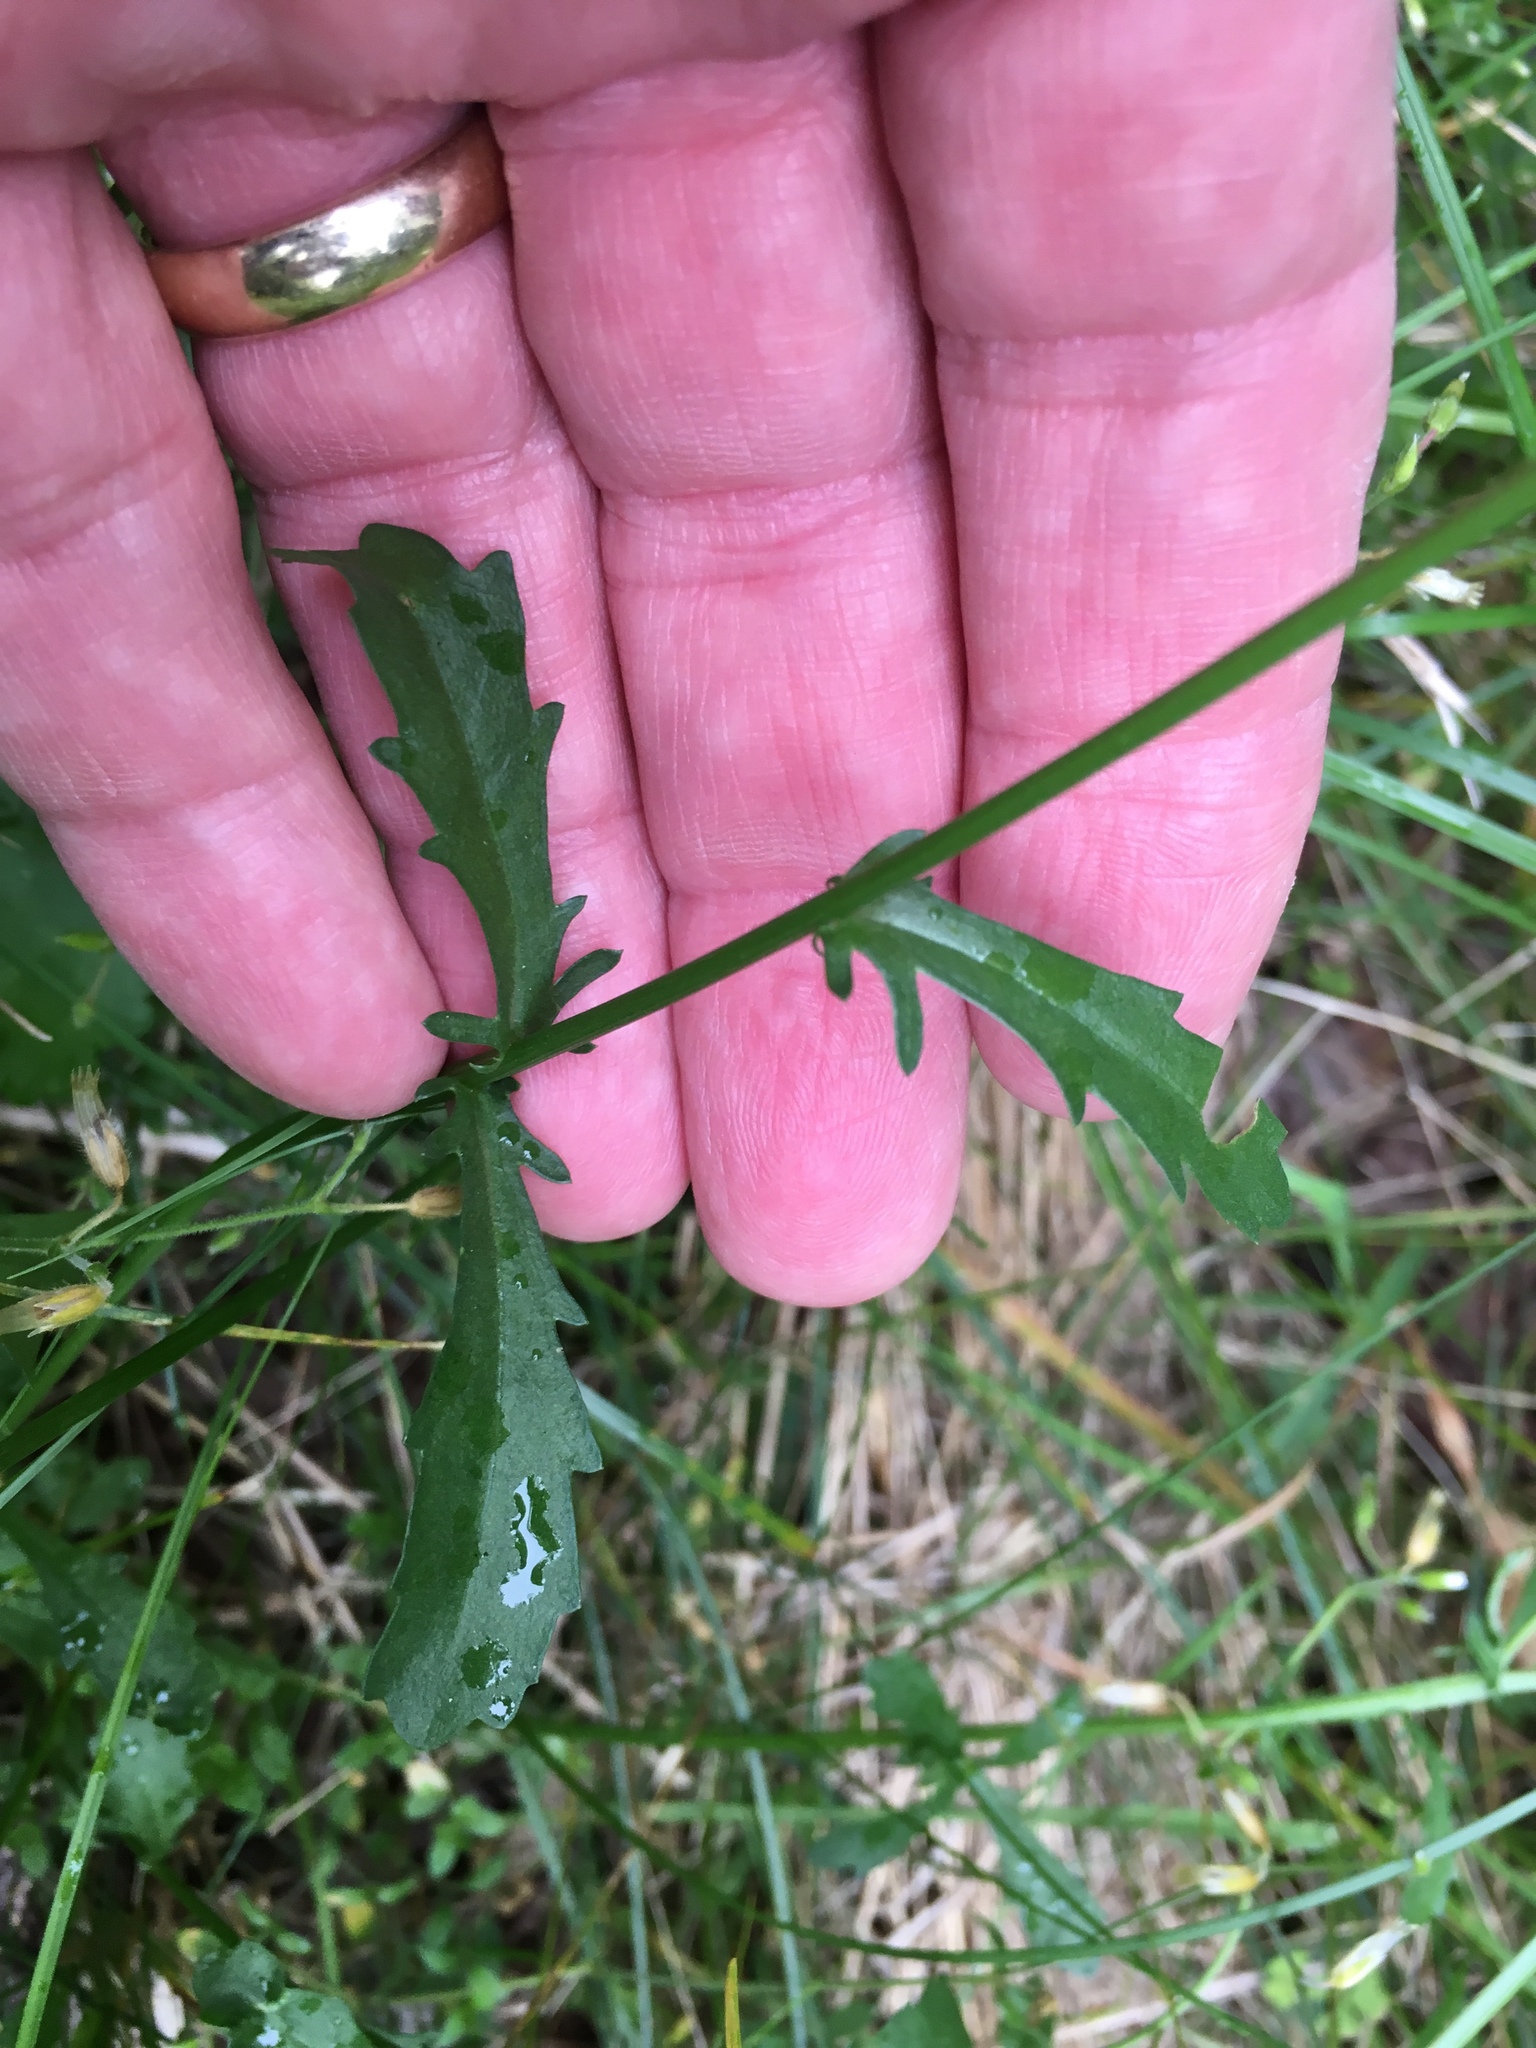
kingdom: Plantae
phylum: Tracheophyta
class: Magnoliopsida
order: Asterales
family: Asteraceae
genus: Leucanthemum
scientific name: Leucanthemum vulgare
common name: Oxeye daisy
